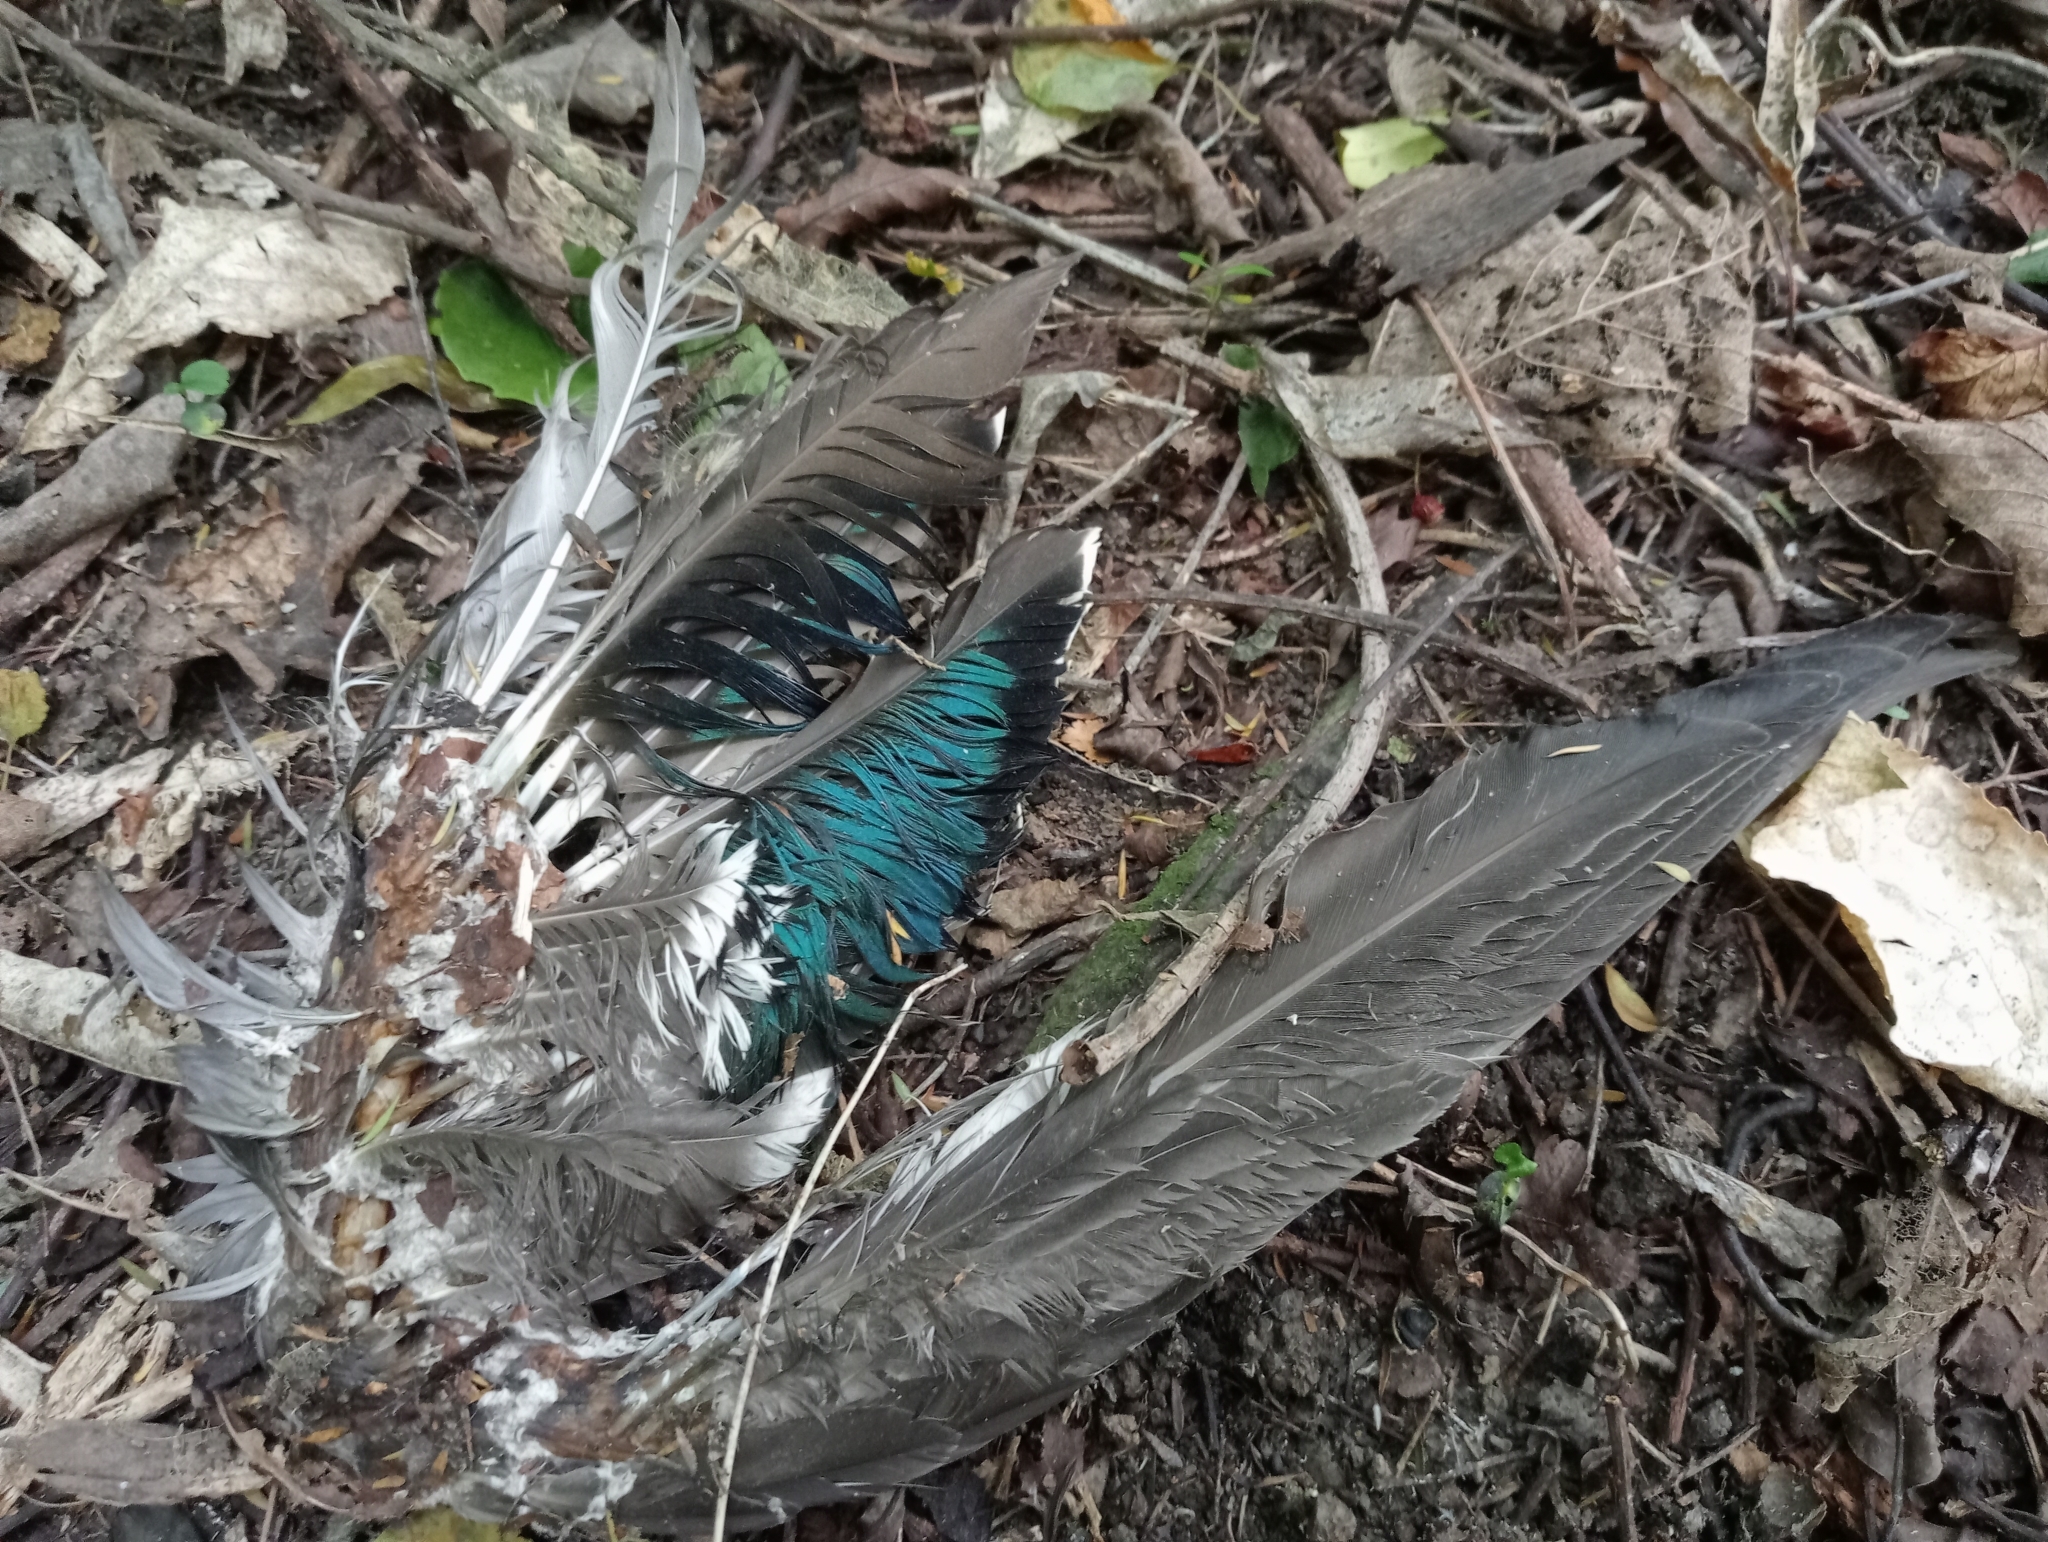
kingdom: Animalia
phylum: Chordata
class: Aves
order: Anseriformes
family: Anatidae
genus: Anas
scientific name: Anas
